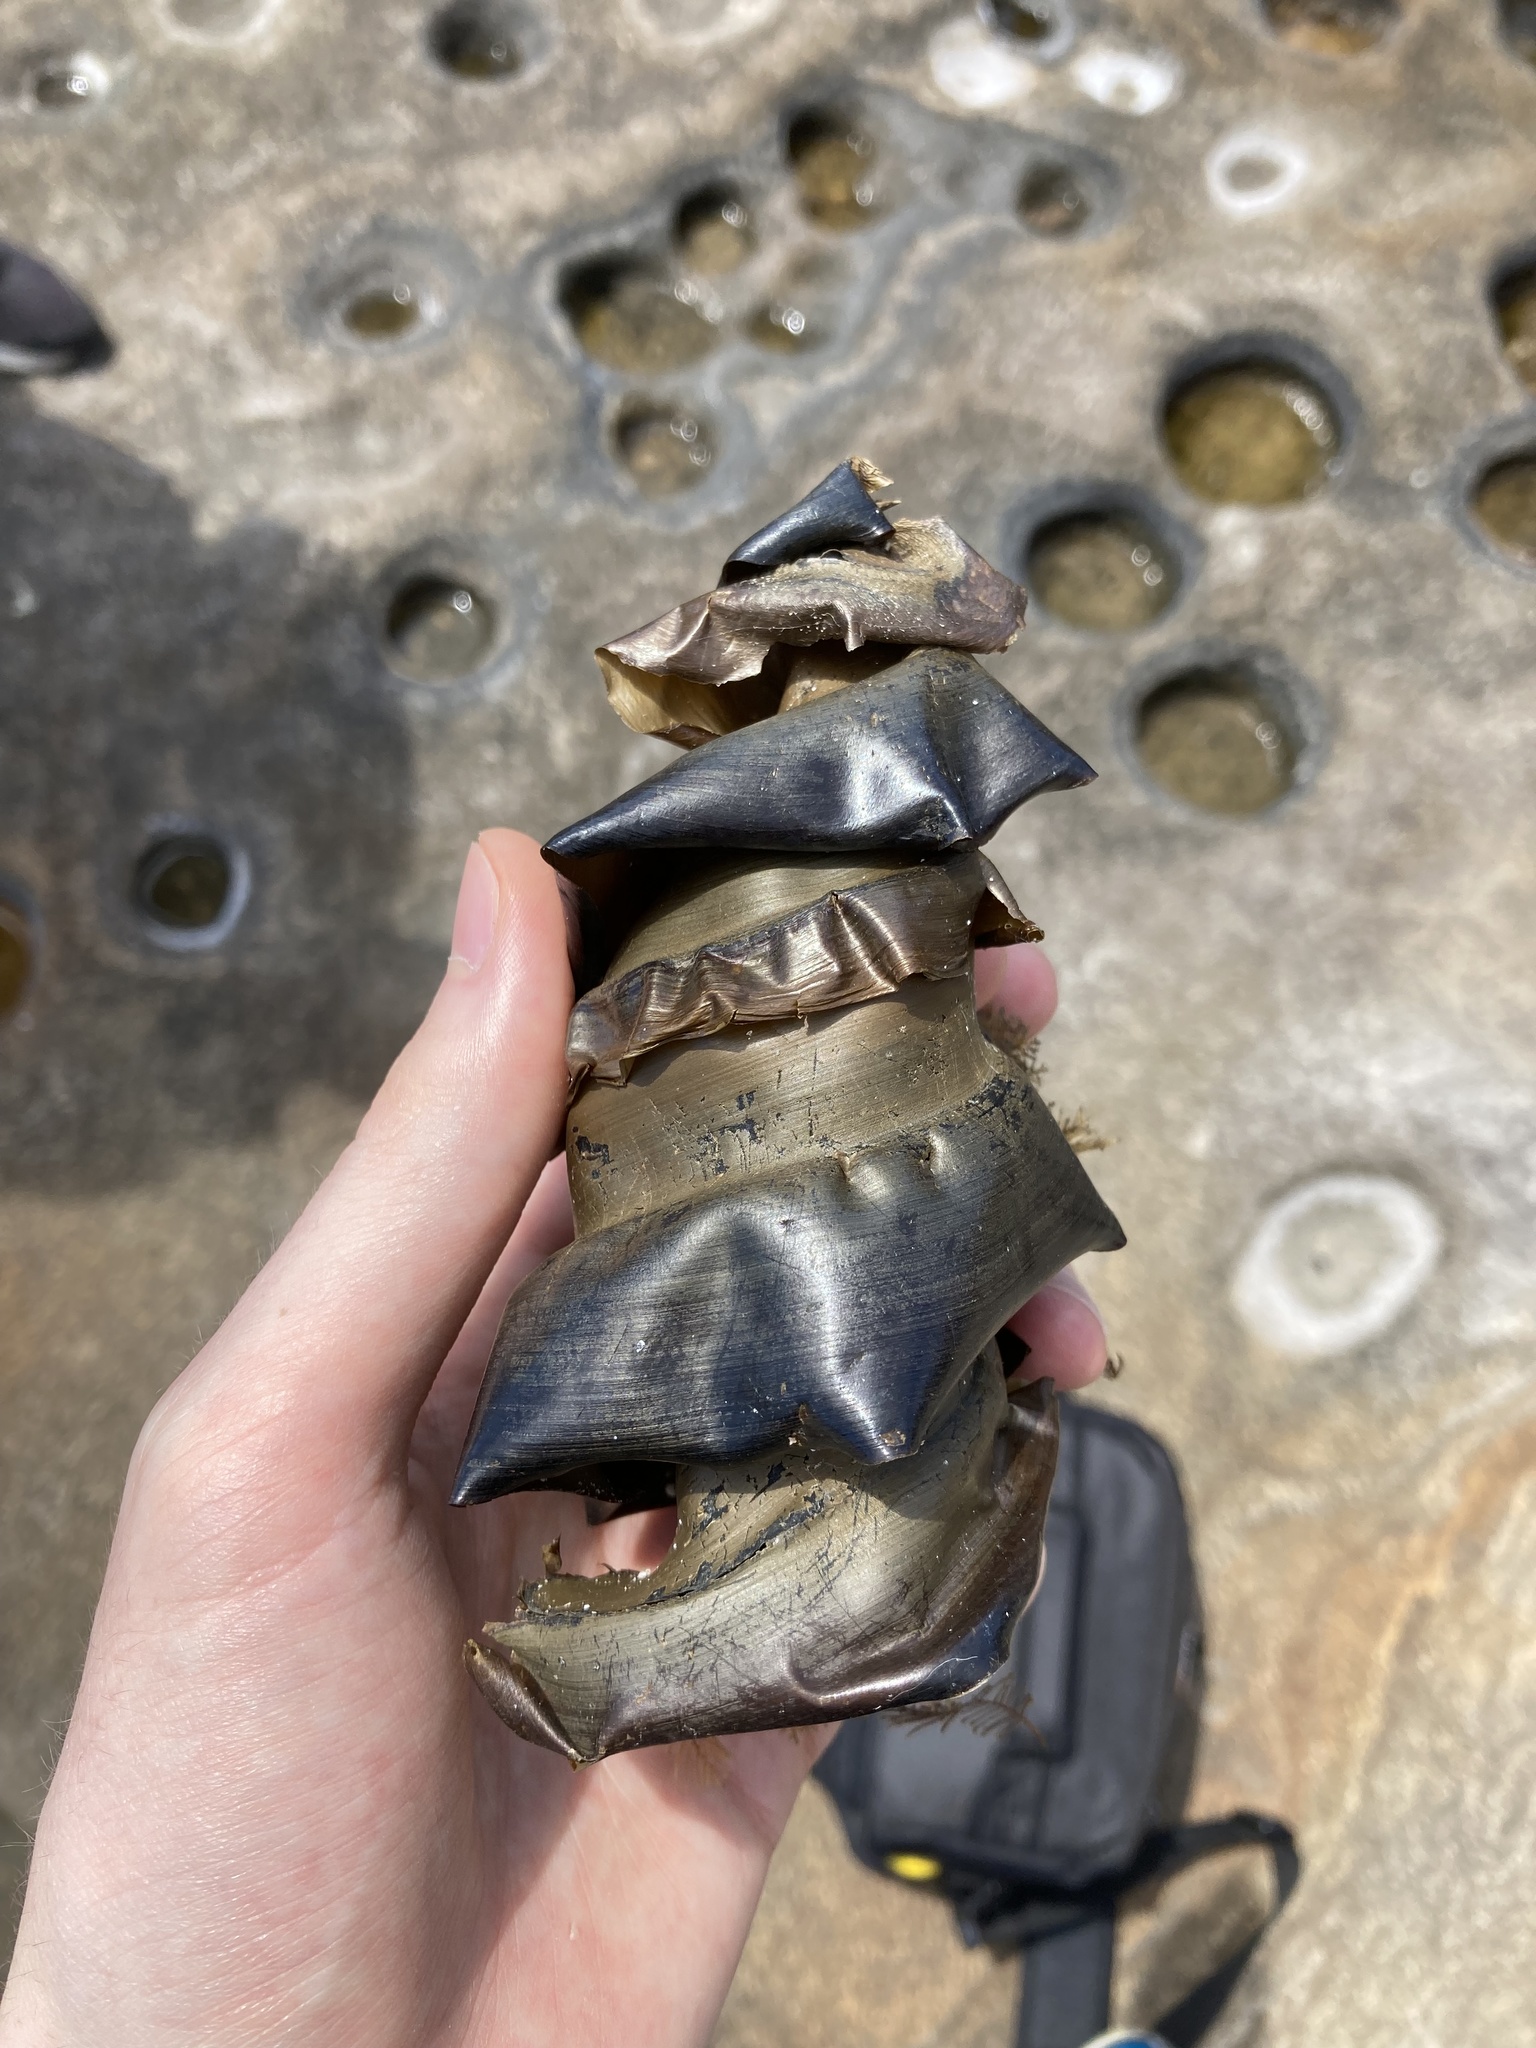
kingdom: Animalia
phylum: Chordata
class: Elasmobranchii
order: Heterodontiformes
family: Heterodontidae
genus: Heterodontus
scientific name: Heterodontus portusjacksoni
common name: Port jackson shark
